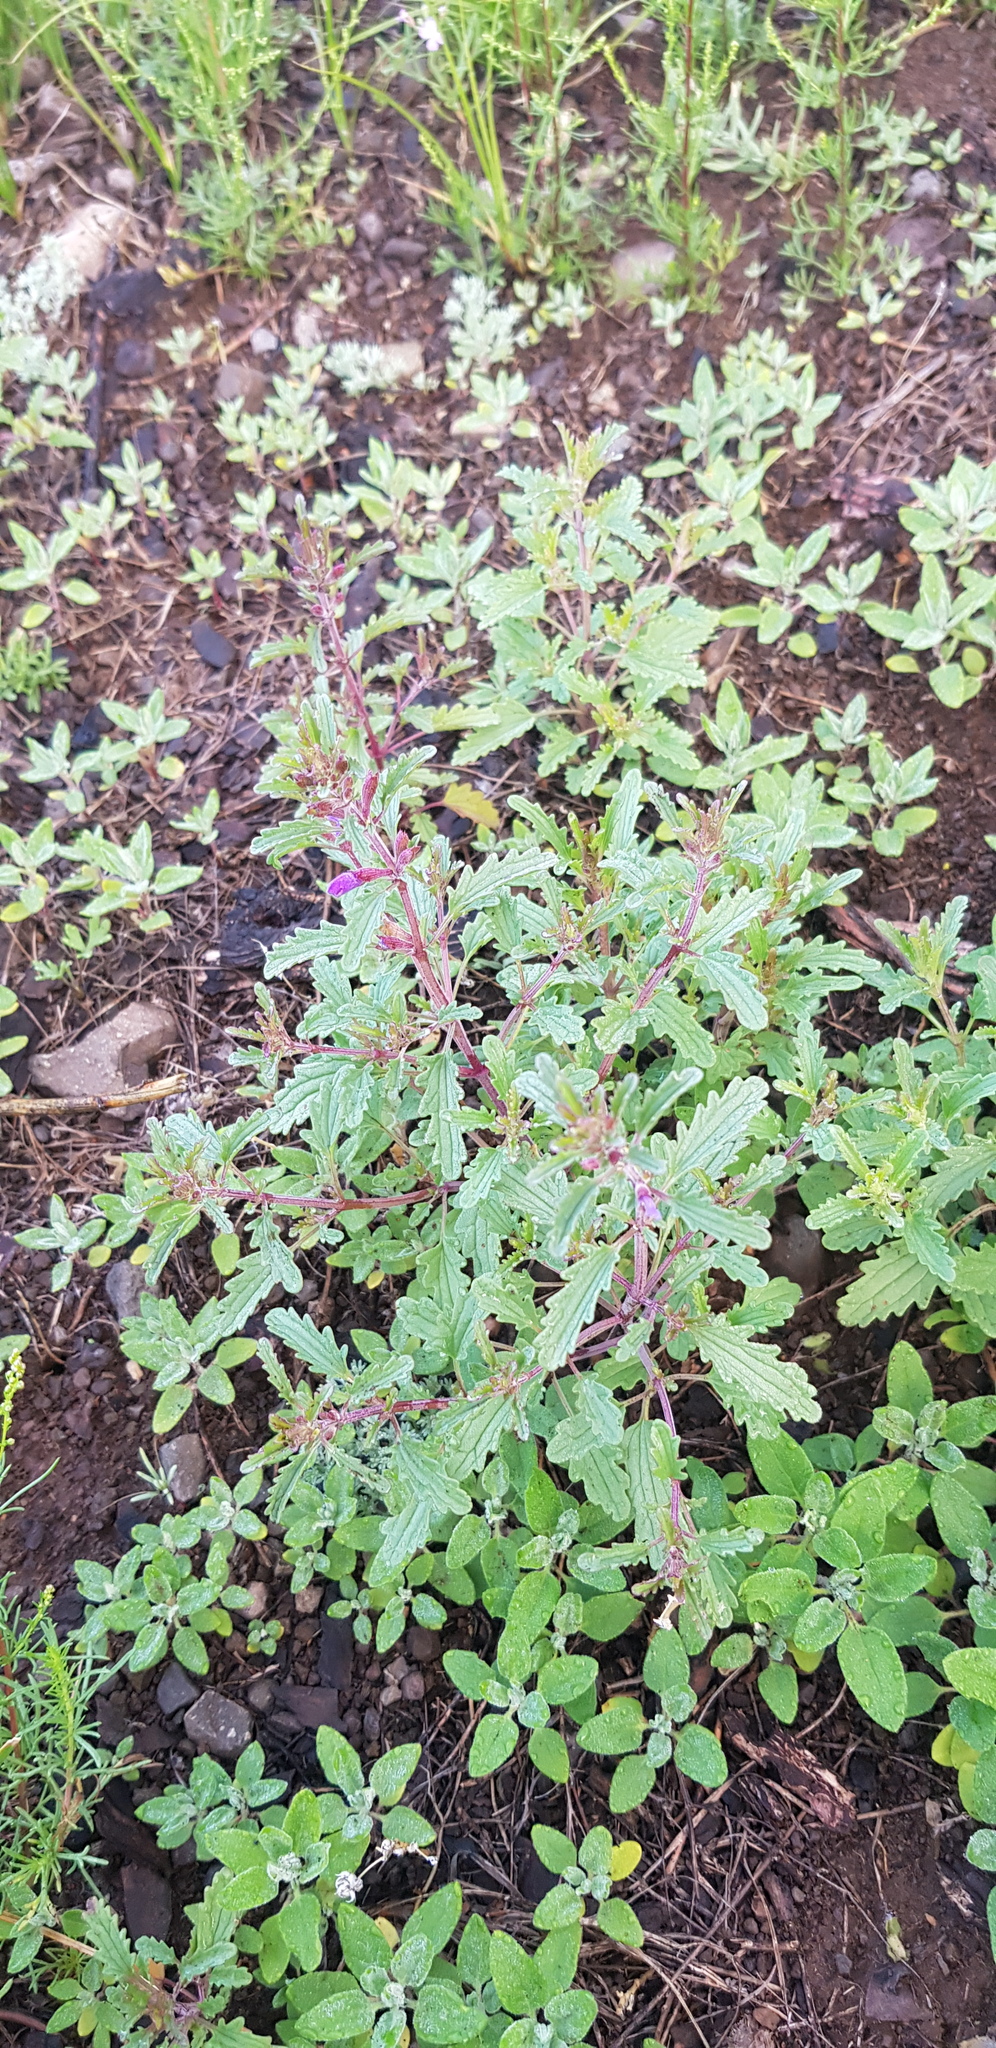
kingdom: Plantae
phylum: Tracheophyta
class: Magnoliopsida
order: Lamiales
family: Lamiaceae
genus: Dracocephalum
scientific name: Dracocephalum foetidum
